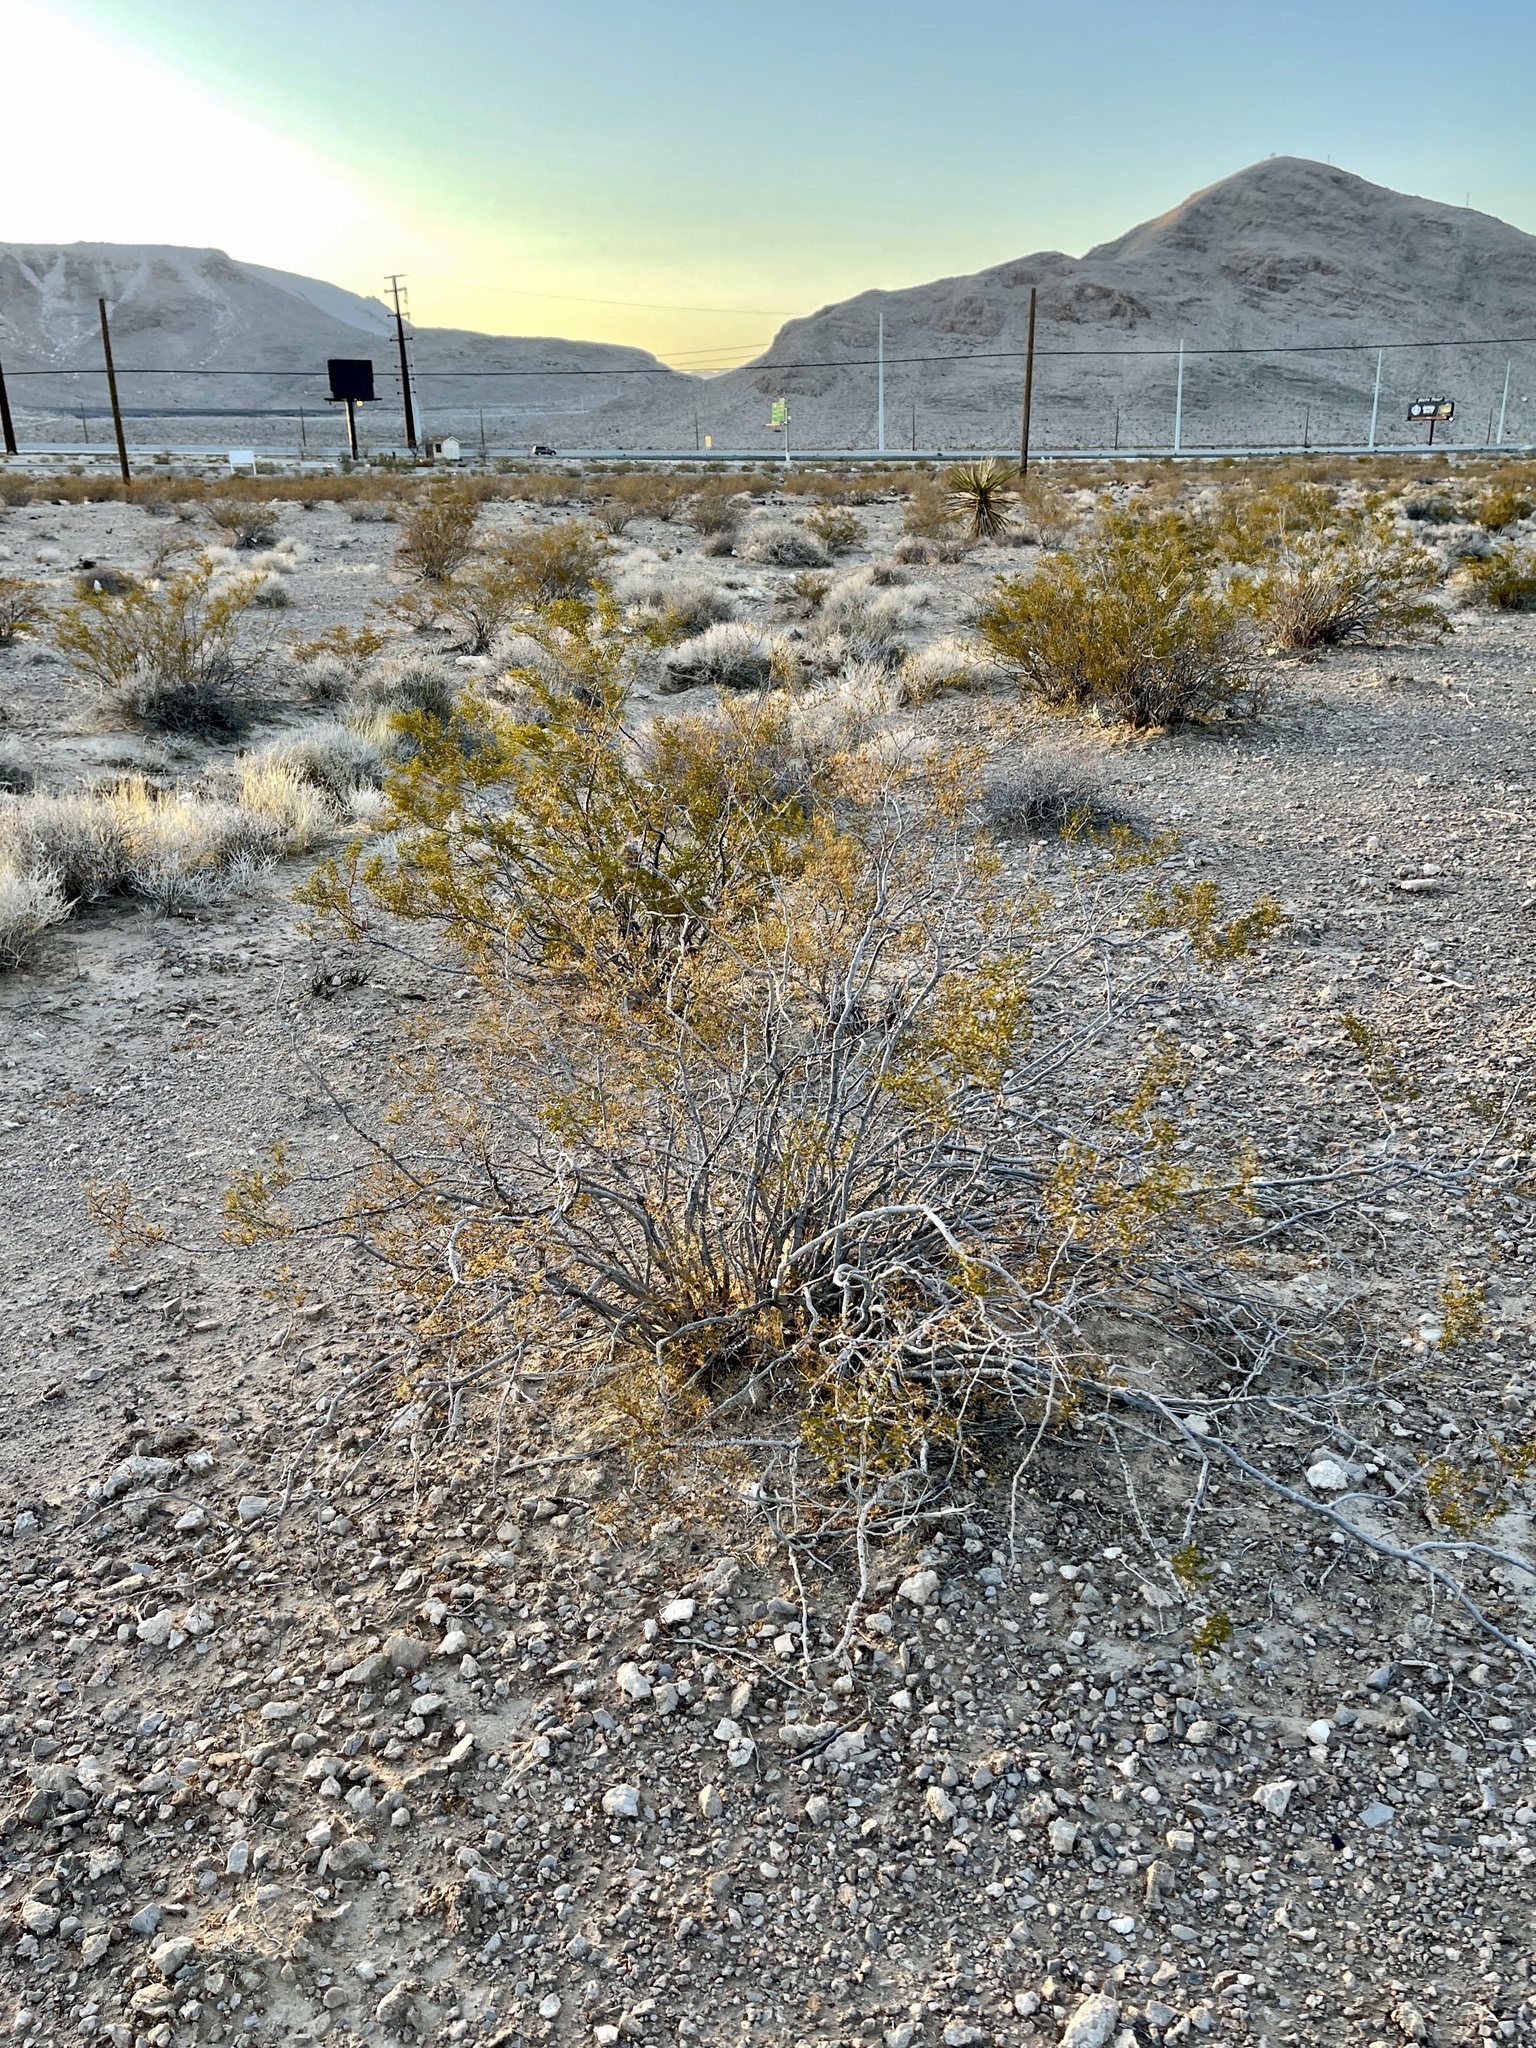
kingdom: Plantae
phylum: Tracheophyta
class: Magnoliopsida
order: Zygophyllales
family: Zygophyllaceae
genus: Larrea
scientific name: Larrea tridentata
